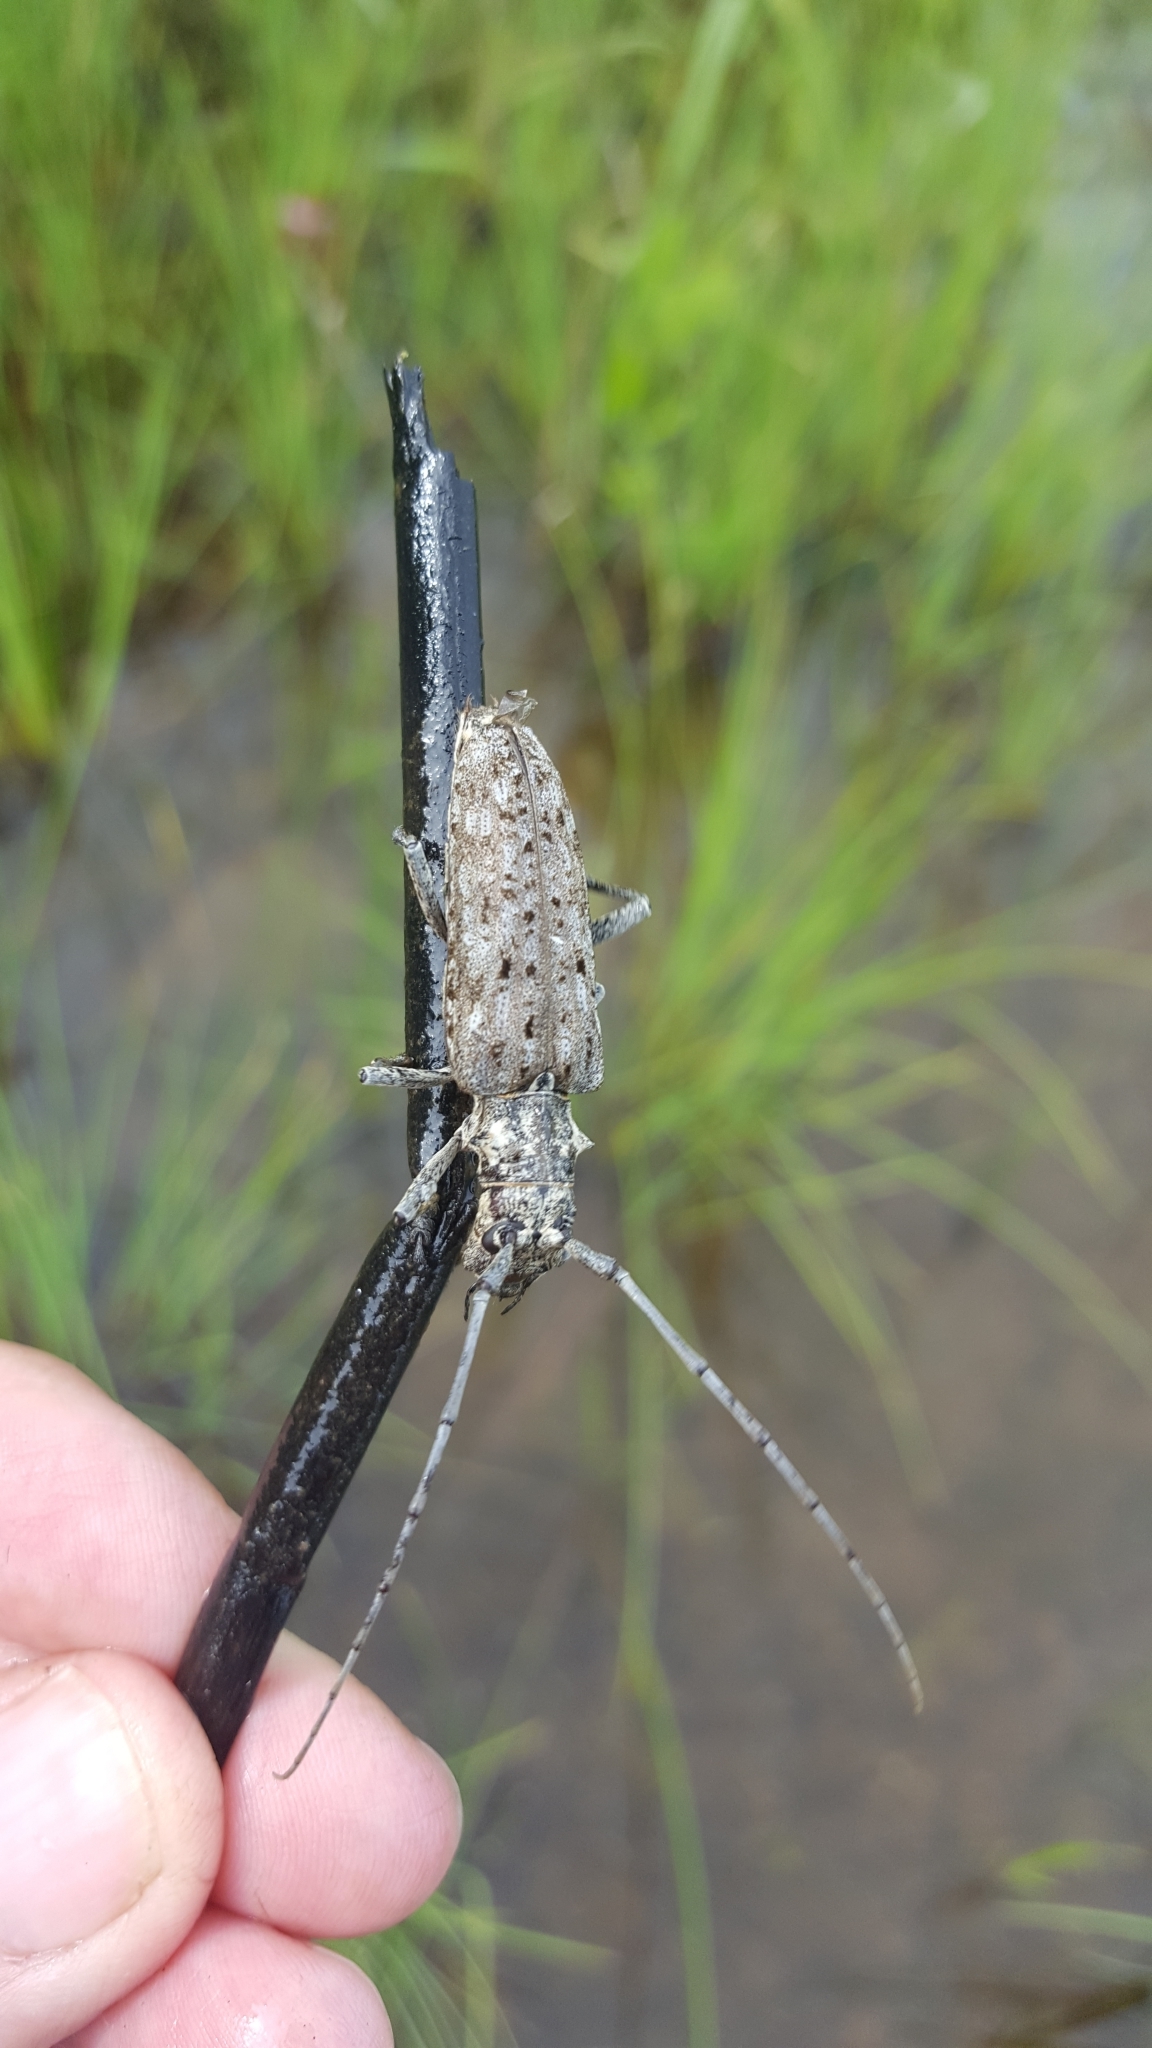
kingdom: Animalia
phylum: Arthropoda
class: Insecta
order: Coleoptera
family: Cerambycidae
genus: Monochamus
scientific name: Monochamus notatus
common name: Northeastern pine sawyer beetle
